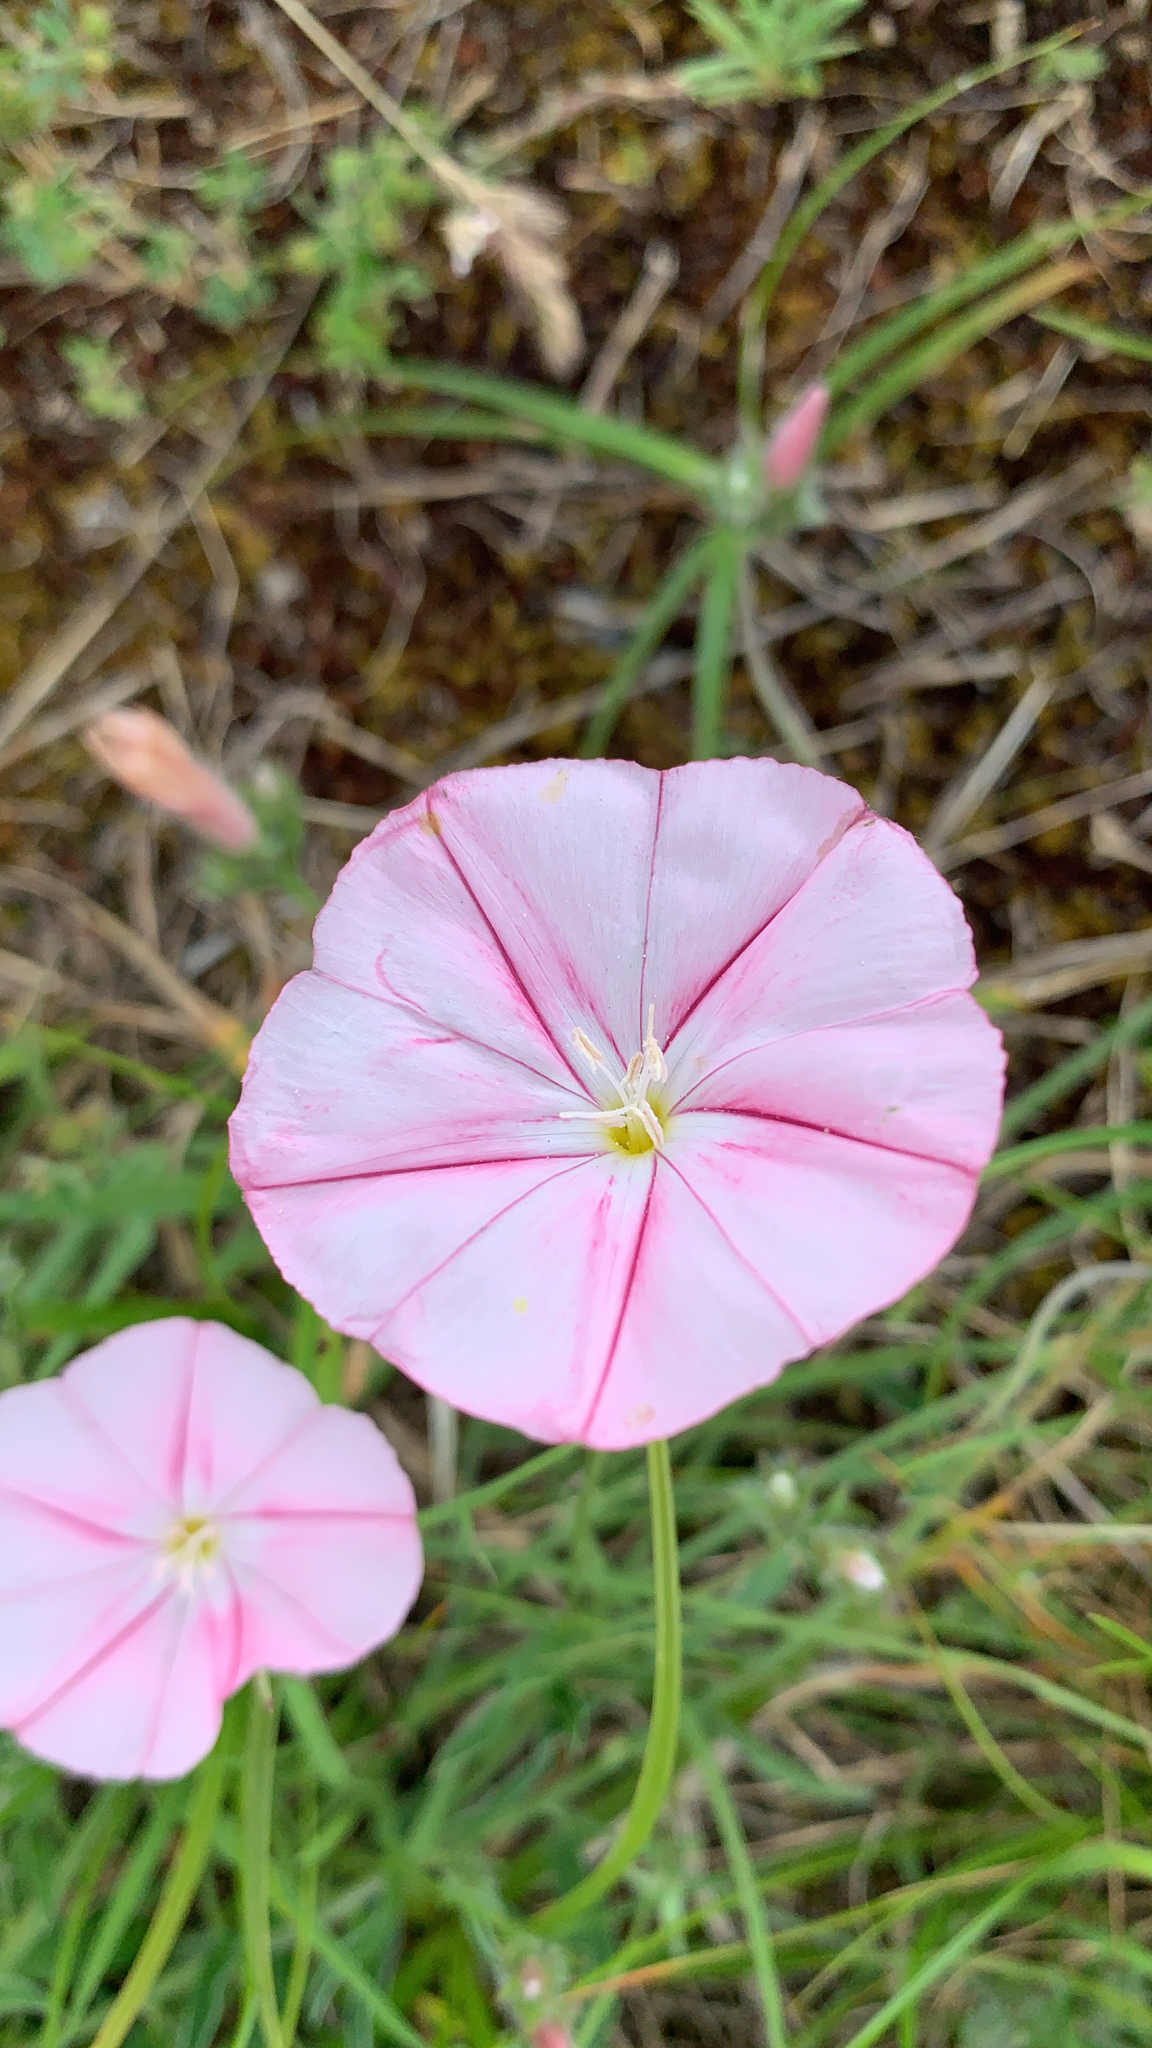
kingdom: Plantae
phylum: Tracheophyta
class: Magnoliopsida
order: Solanales
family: Convolvulaceae
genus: Convolvulus
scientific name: Convolvulus cantabrica
